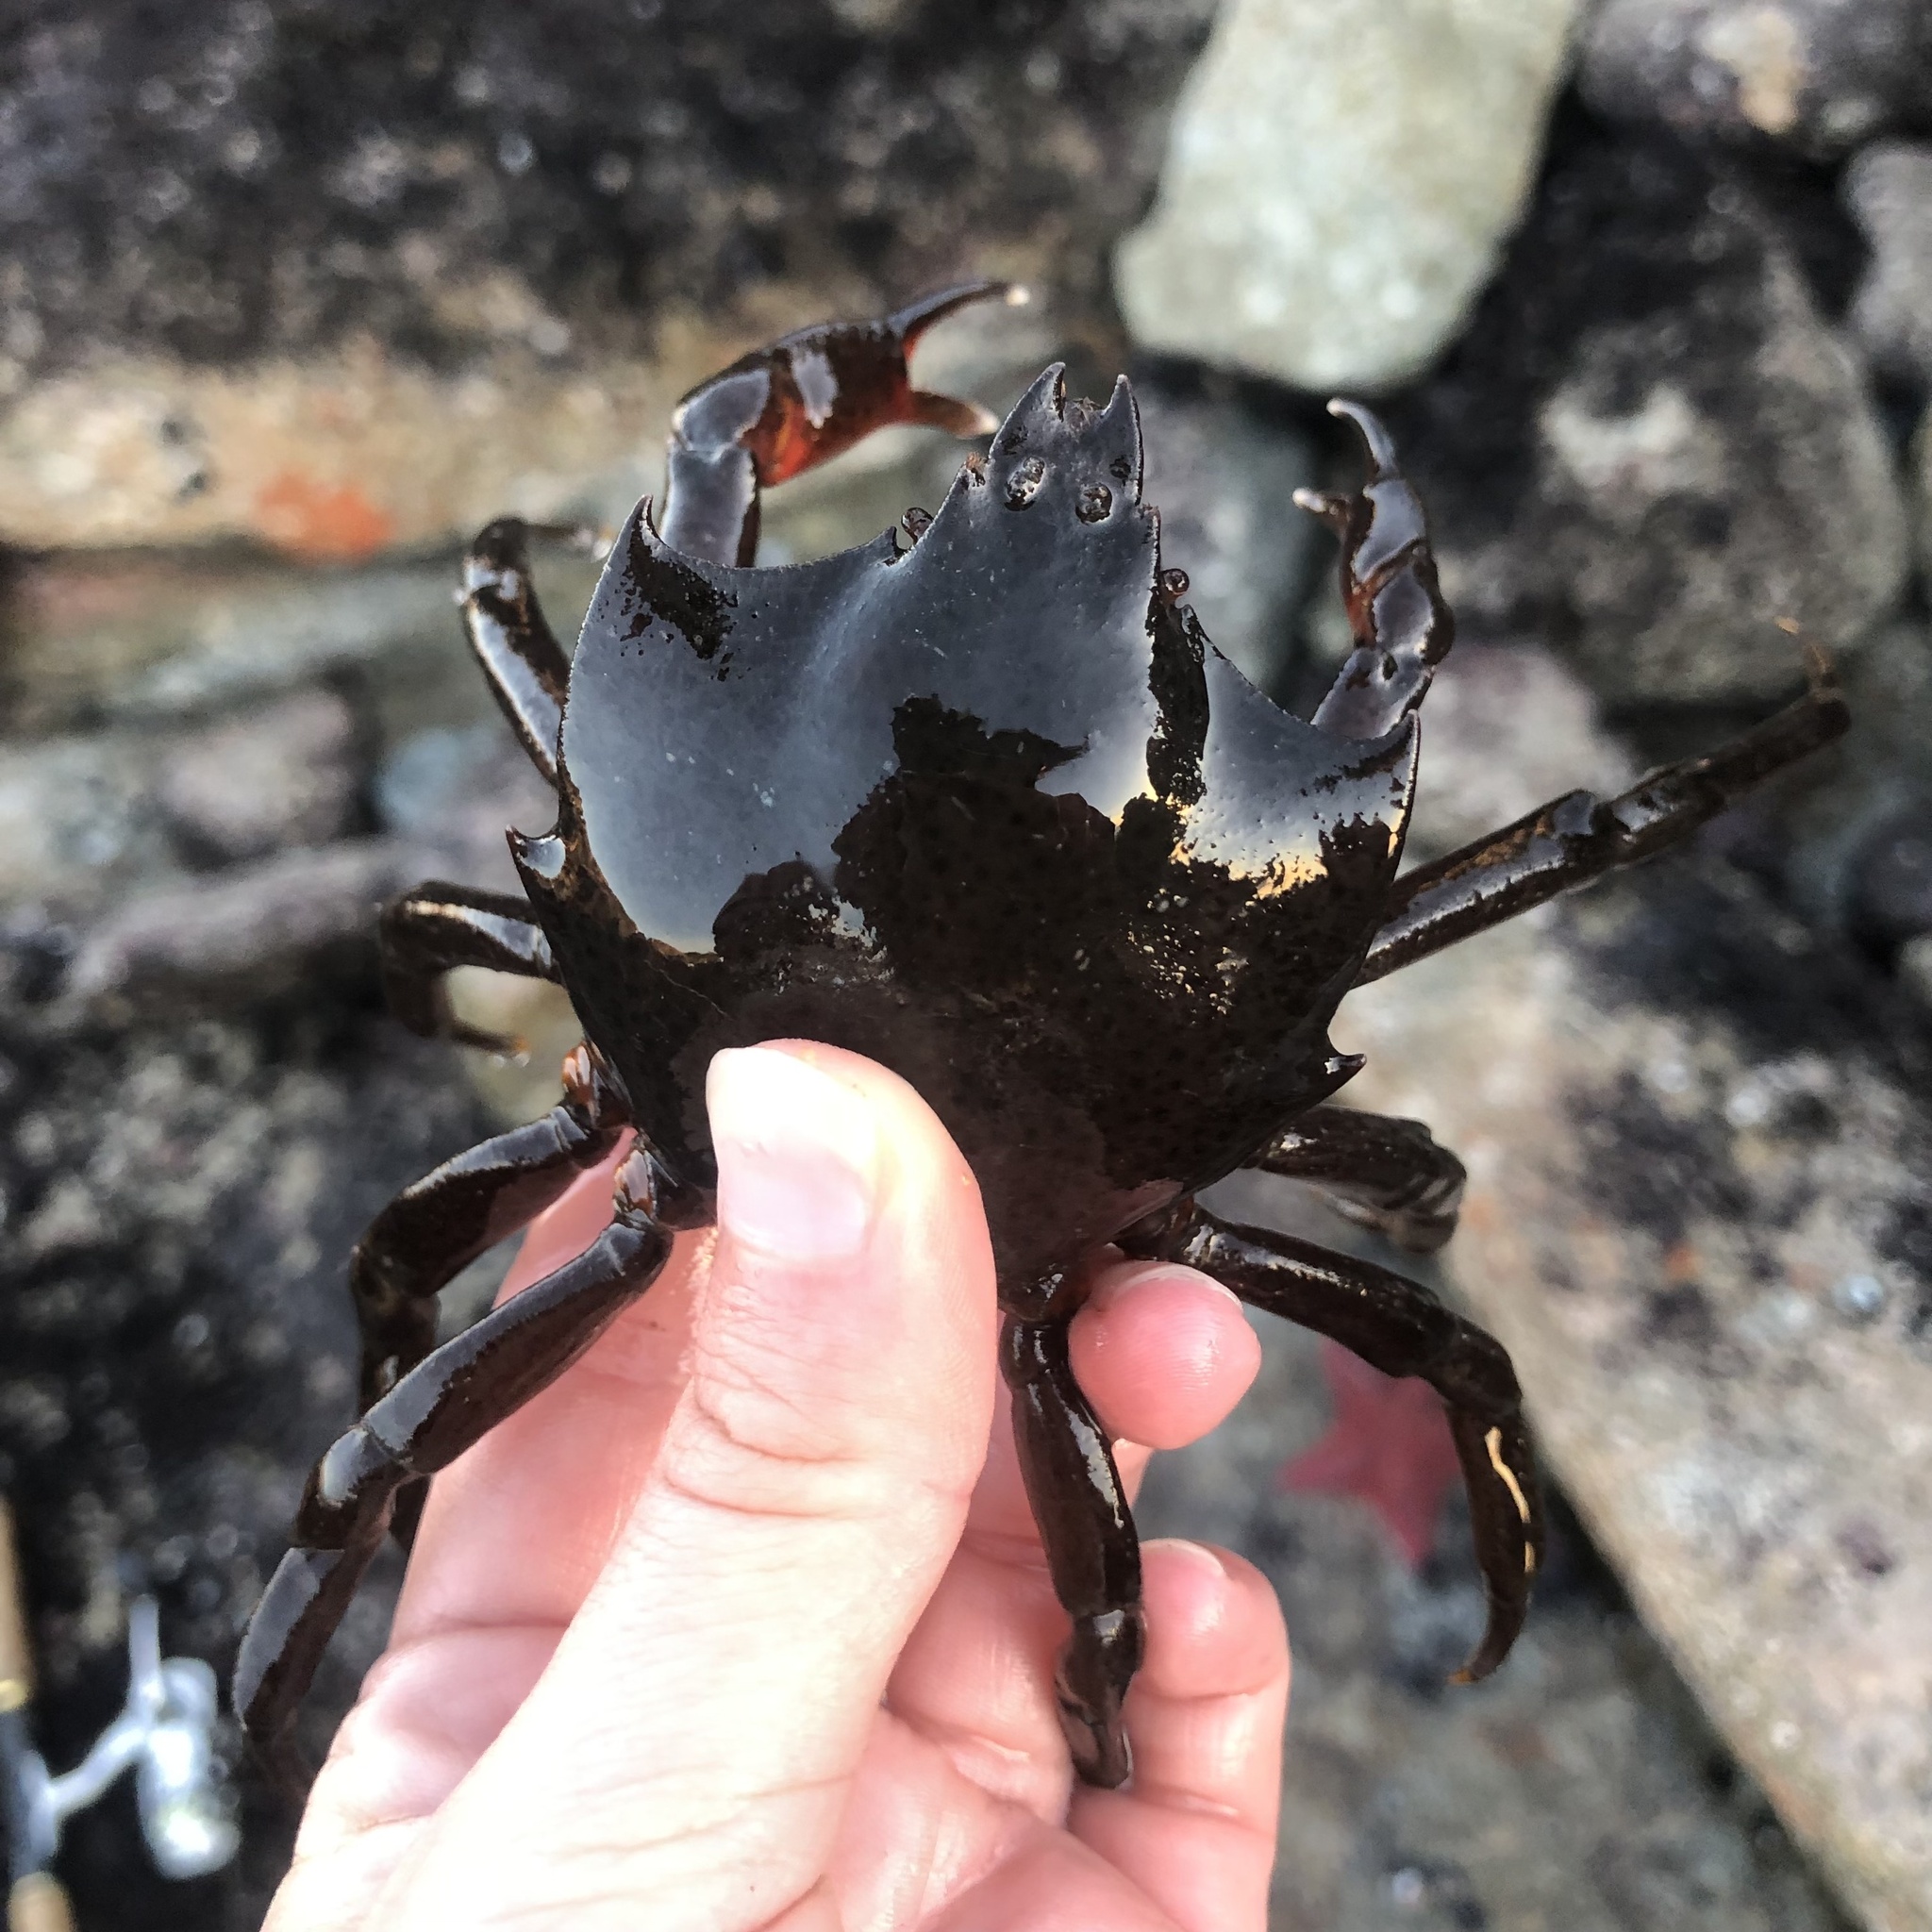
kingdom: Animalia
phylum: Arthropoda
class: Malacostraca
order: Decapoda
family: Epialtidae
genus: Pugettia
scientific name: Pugettia producta
